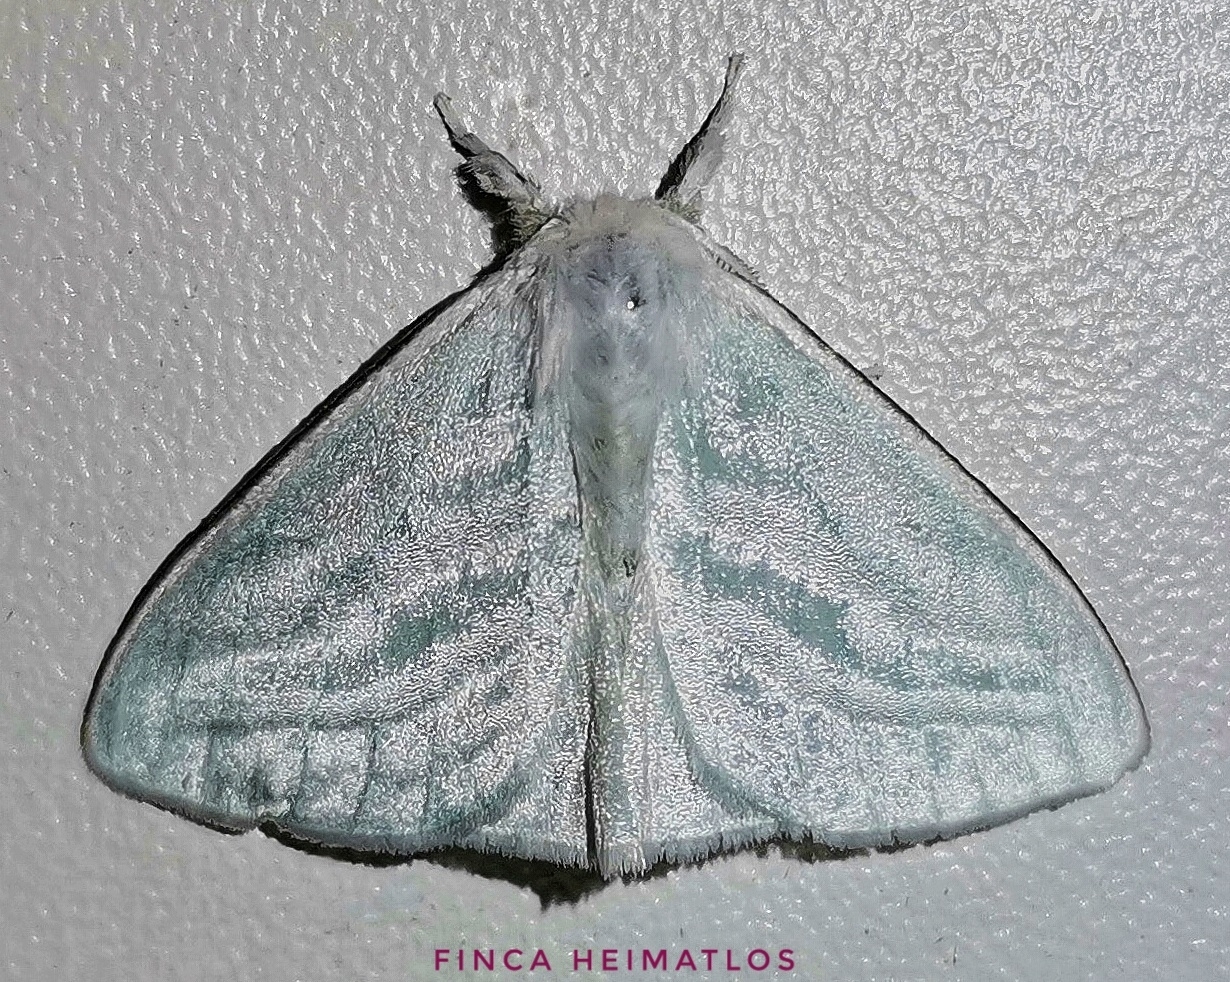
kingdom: Animalia
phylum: Arthropoda
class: Insecta
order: Lepidoptera
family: Erebidae
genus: Caviria
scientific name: Caviria regina
